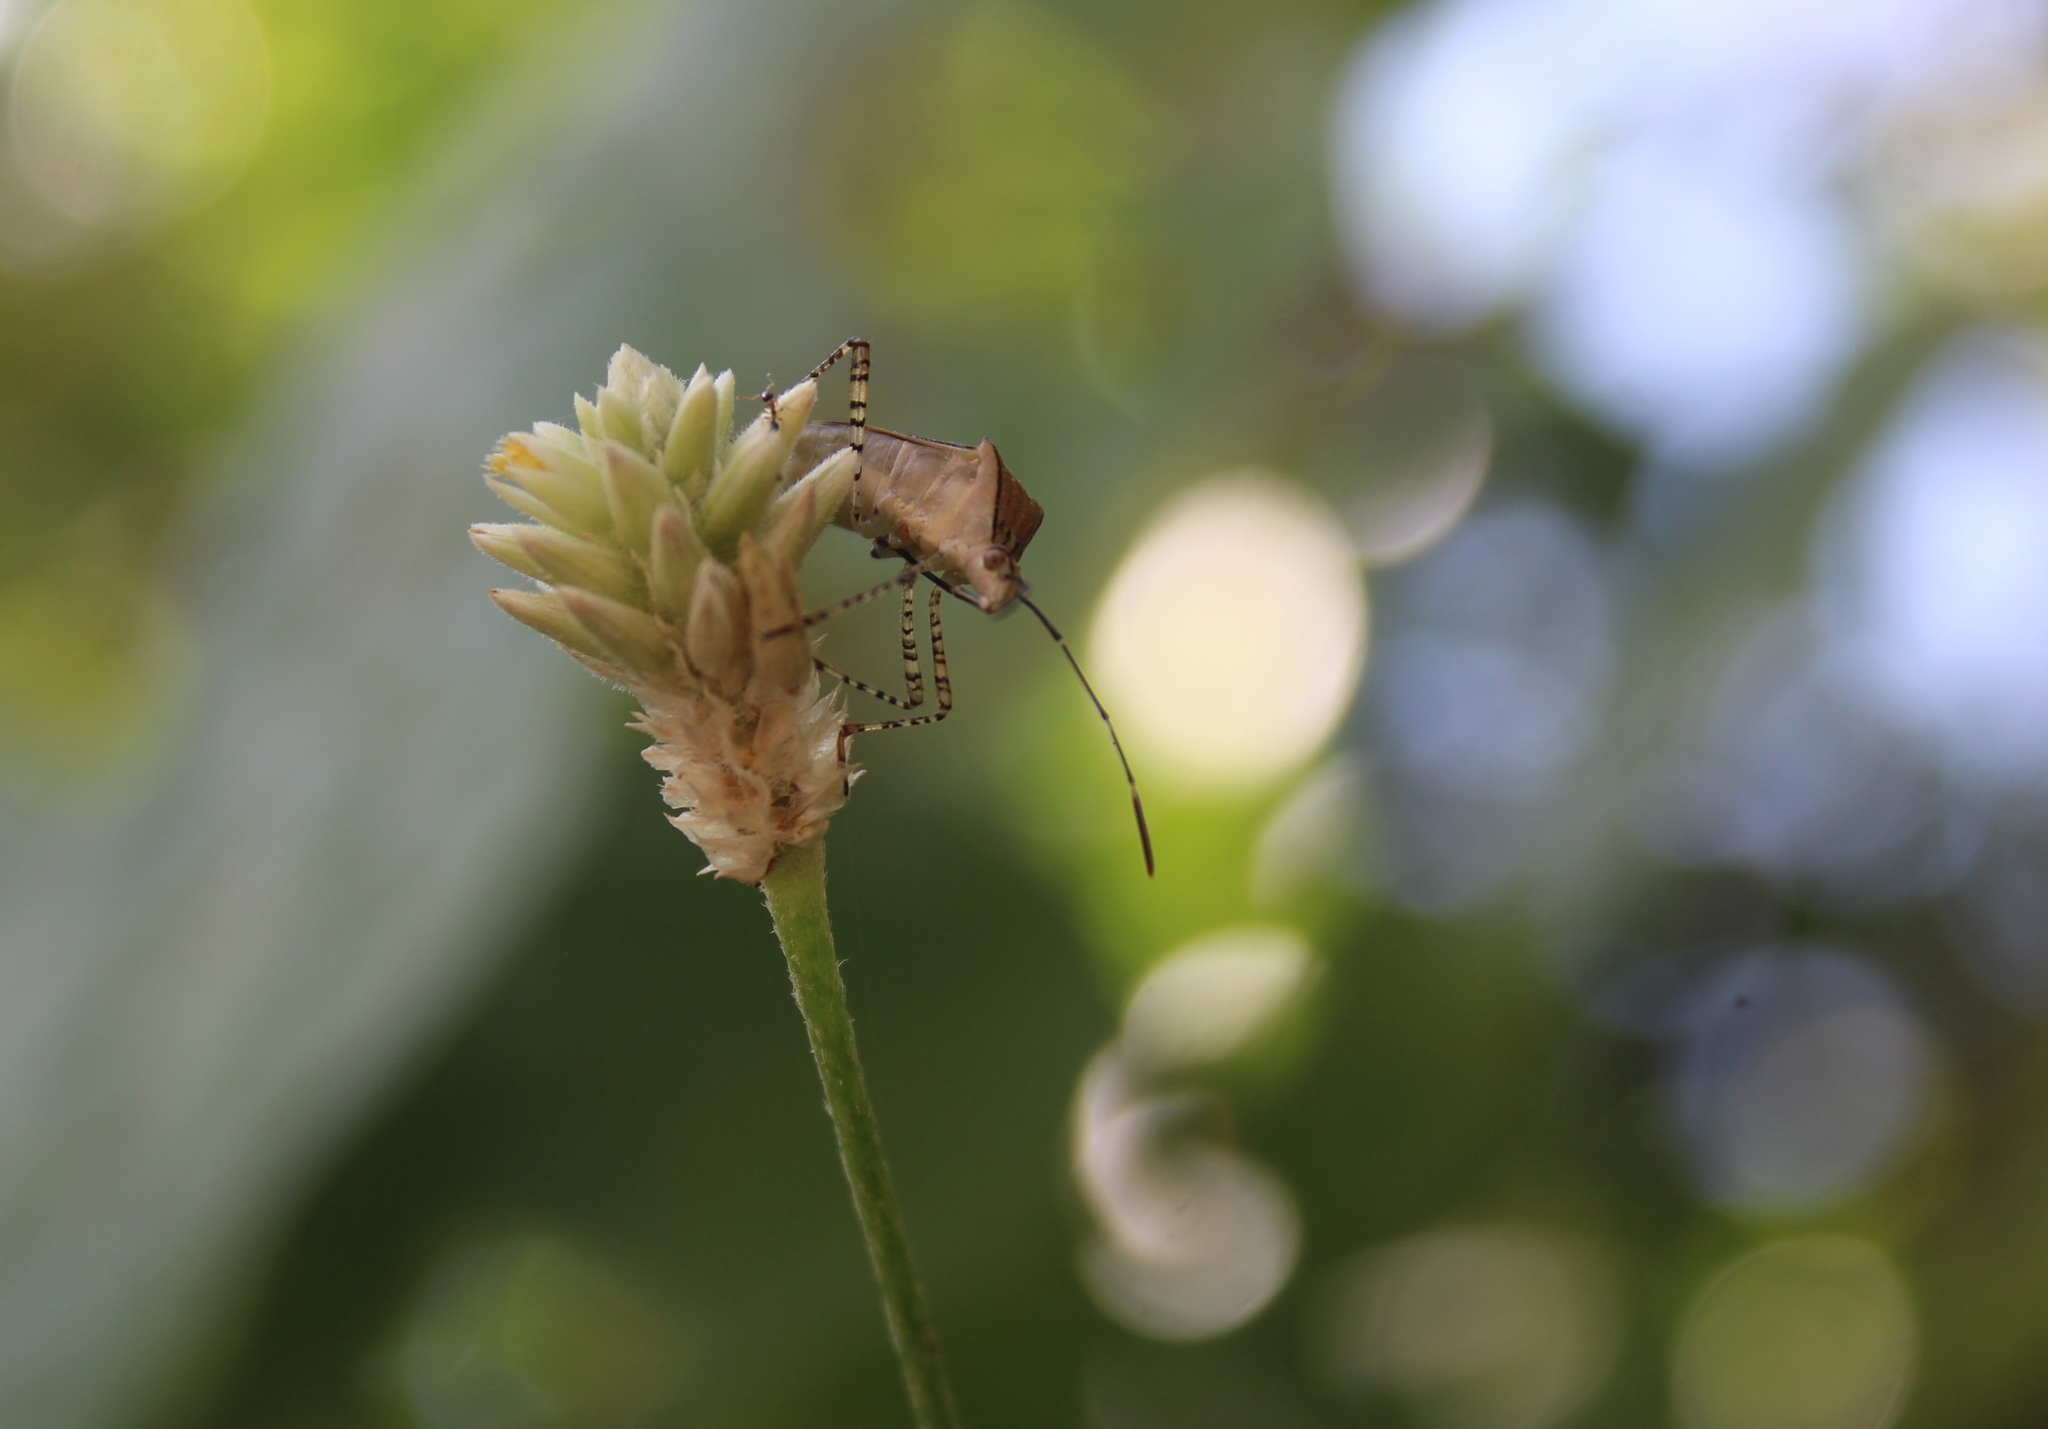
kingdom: Animalia
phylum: Arthropoda
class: Insecta
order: Hemiptera
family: Coreidae
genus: Hypselonotus
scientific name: Hypselonotus lineatus
